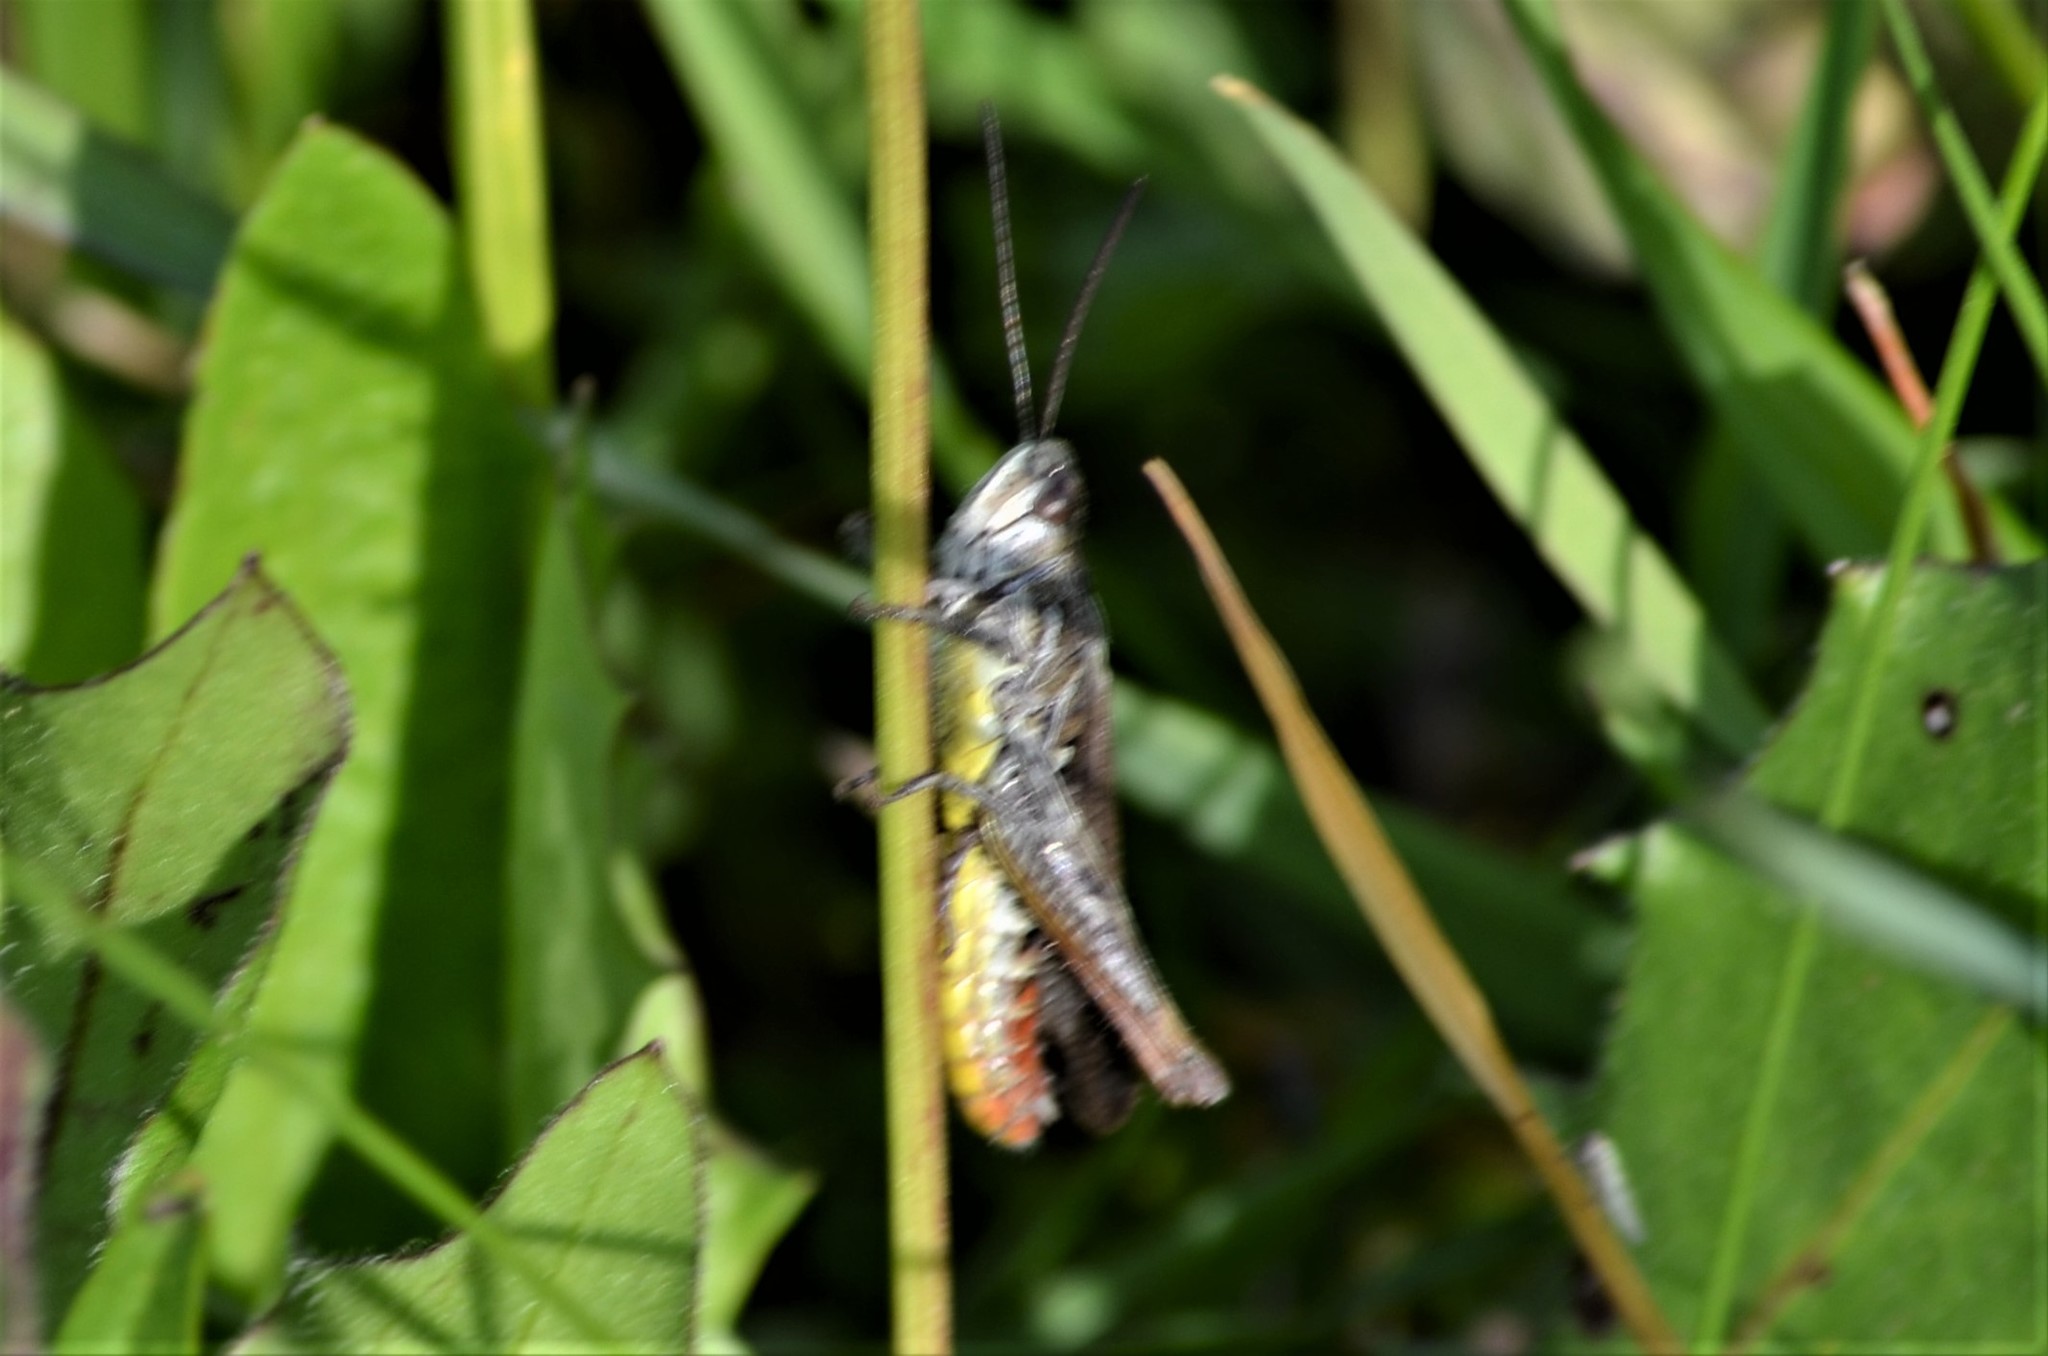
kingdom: Animalia
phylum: Arthropoda
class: Insecta
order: Orthoptera
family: Acrididae
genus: Chorthippus
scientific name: Chorthippus biguttulus
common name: Bow-winged grasshopper
